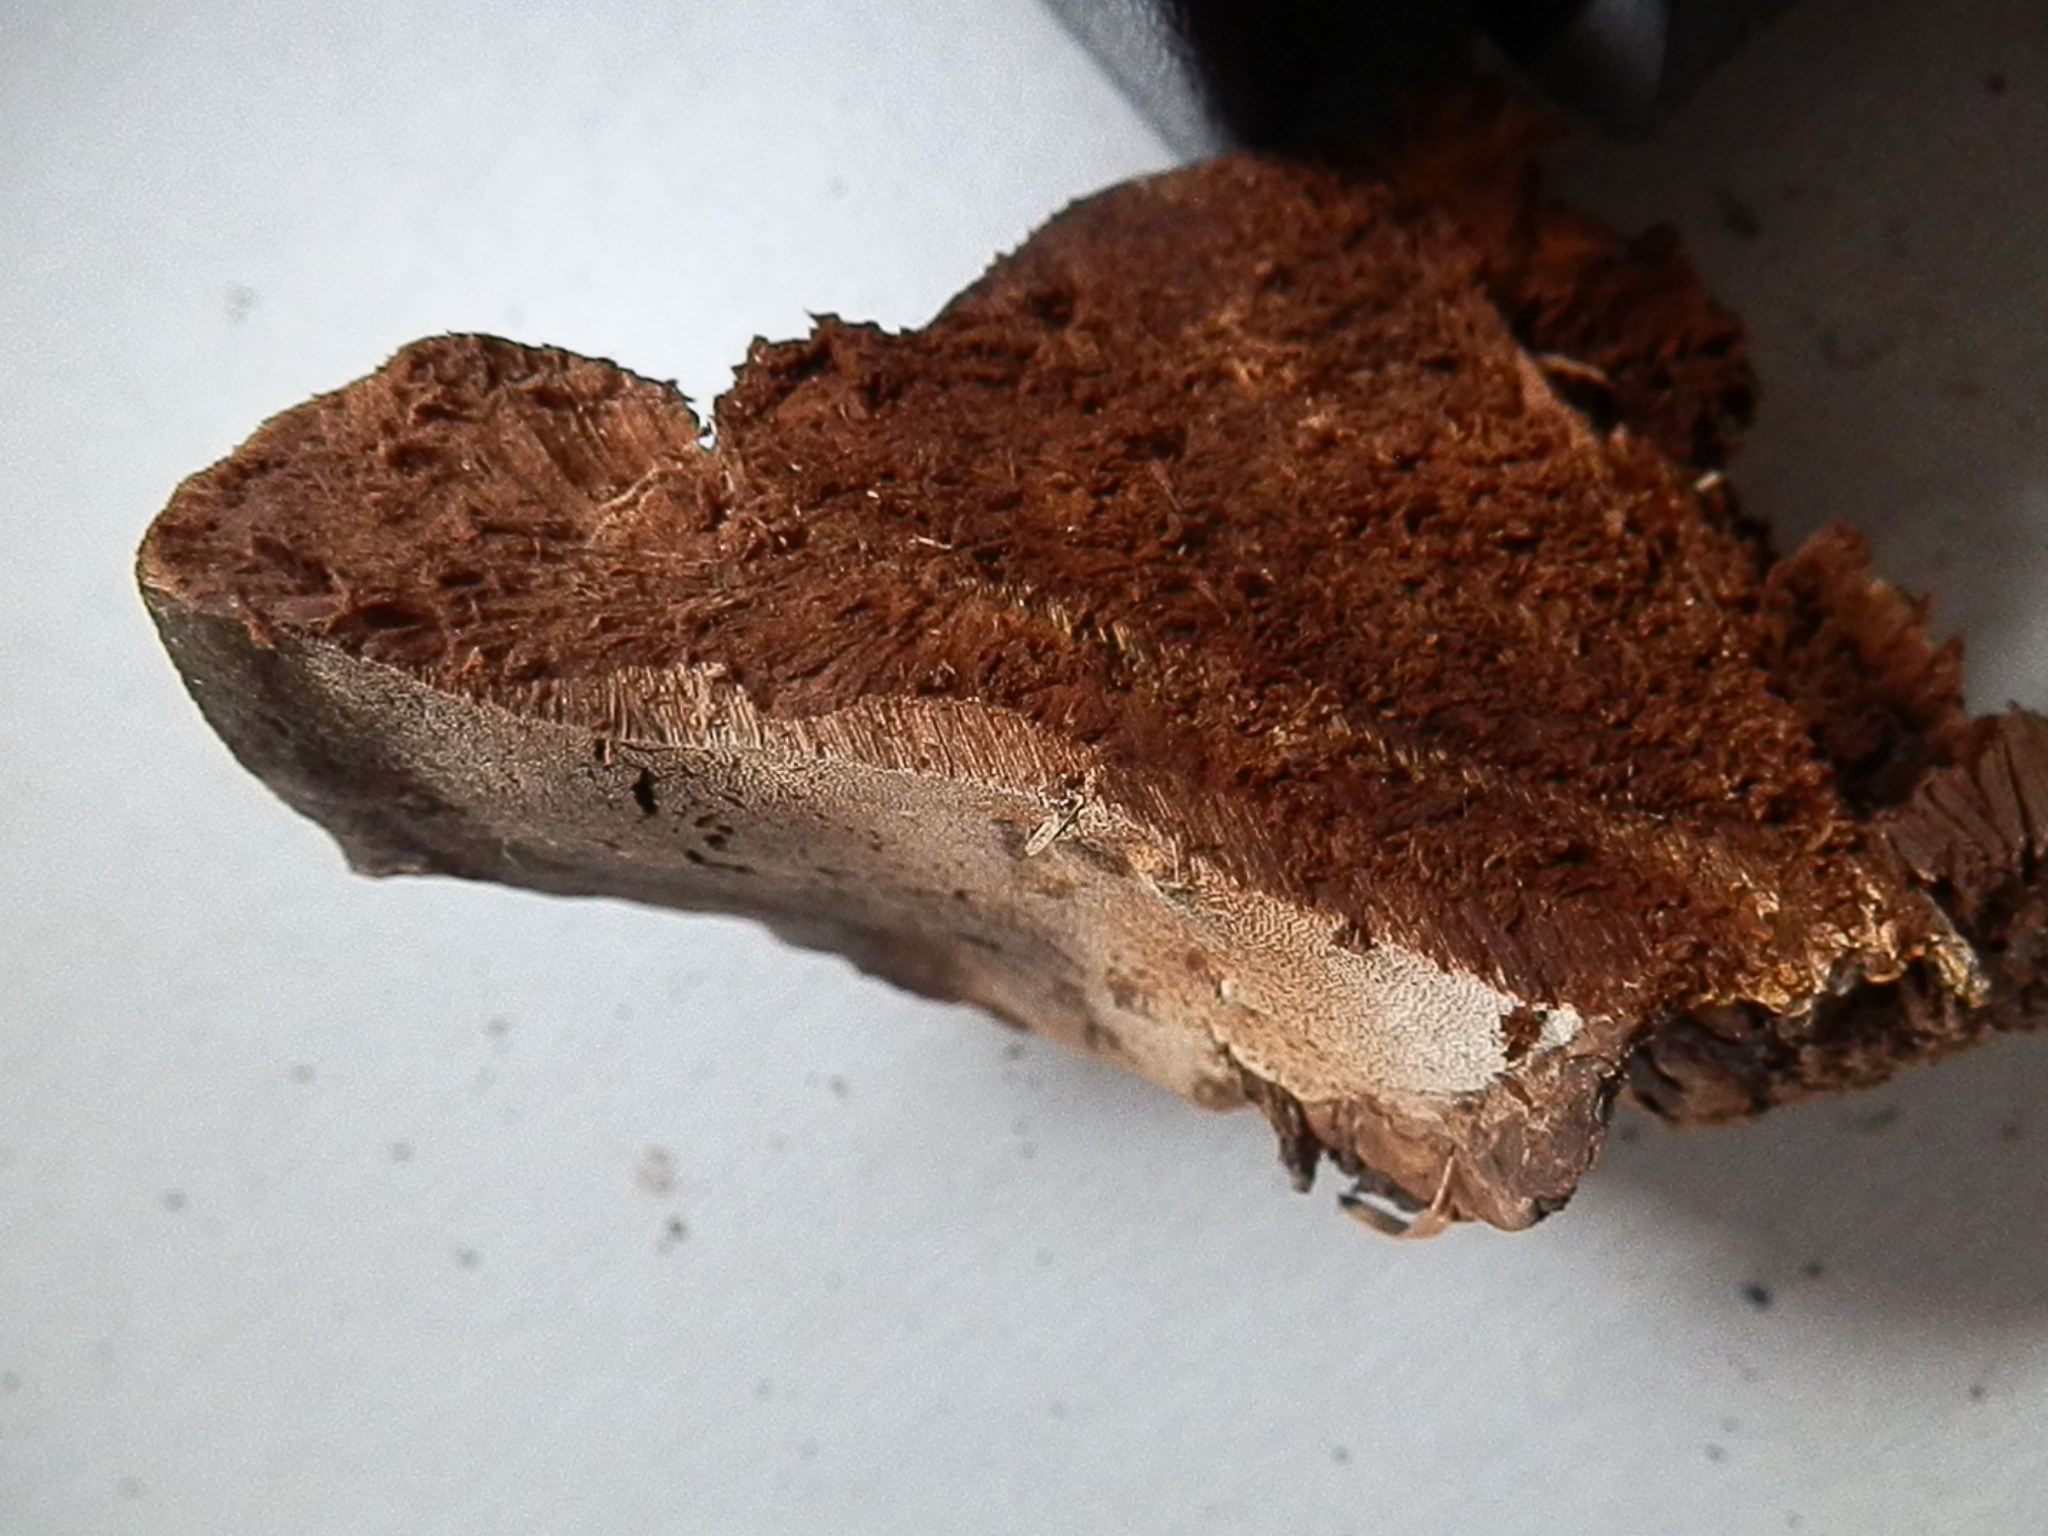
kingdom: Fungi
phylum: Basidiomycota
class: Agaricomycetes
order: Polyporales
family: Polyporaceae
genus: Ganoderma
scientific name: Ganoderma applanatum
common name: Artist's bracket
